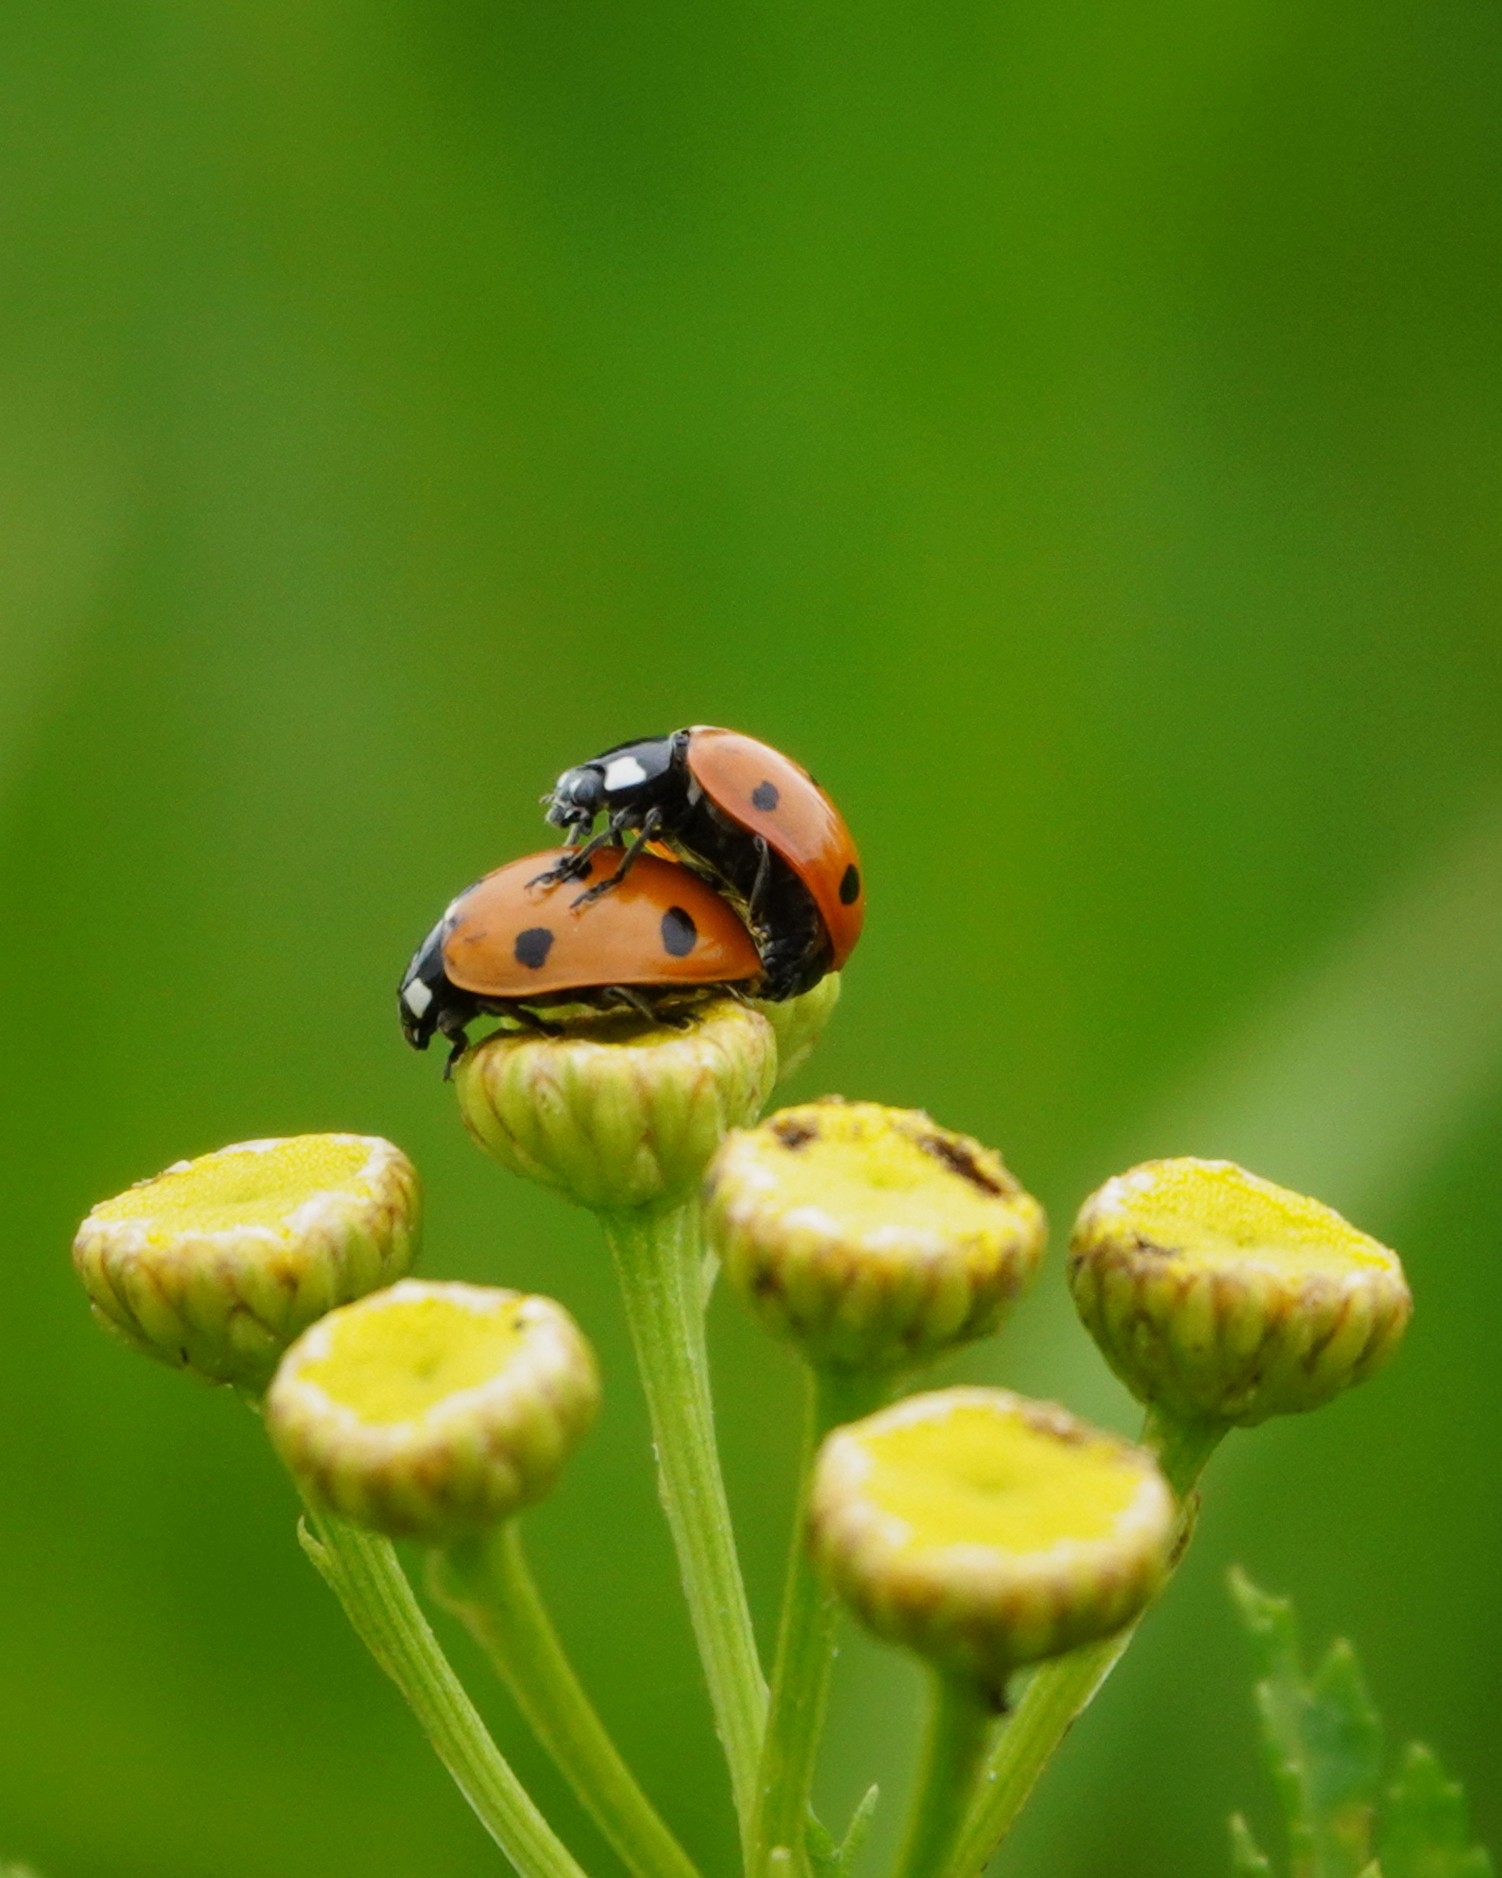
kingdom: Animalia
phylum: Arthropoda
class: Insecta
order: Coleoptera
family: Coccinellidae
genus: Coccinella
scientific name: Coccinella septempunctata
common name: Sevenspotted lady beetle
